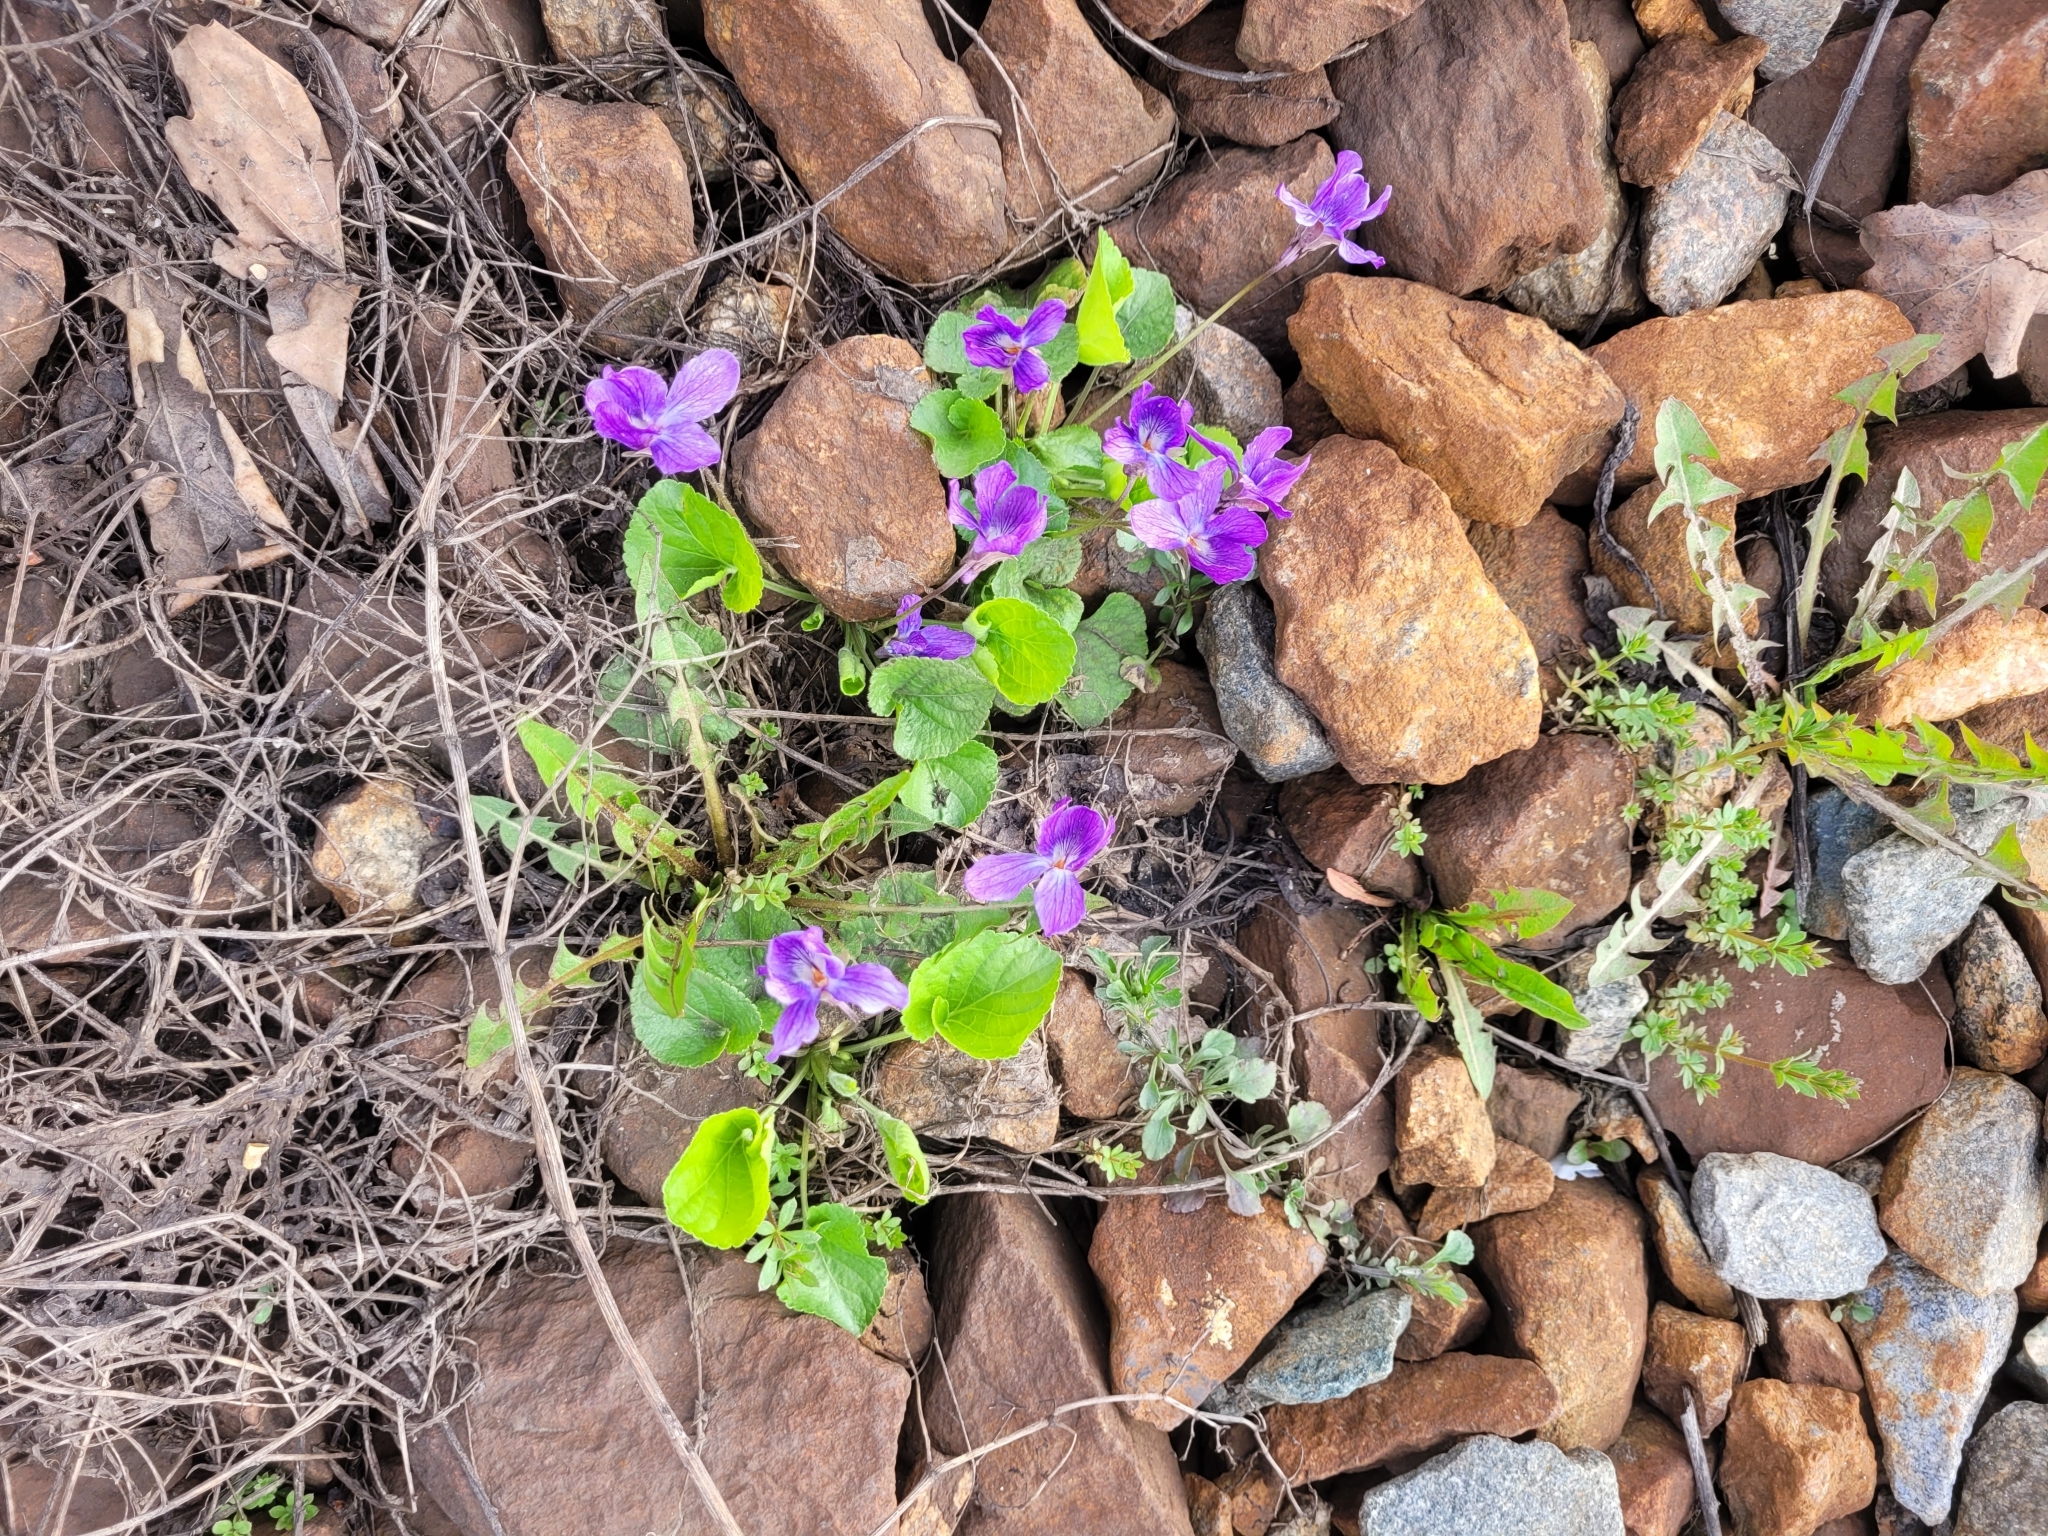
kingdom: Plantae
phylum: Tracheophyta
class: Magnoliopsida
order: Malpighiales
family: Violaceae
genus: Viola
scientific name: Viola odorata
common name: Sweet violet
